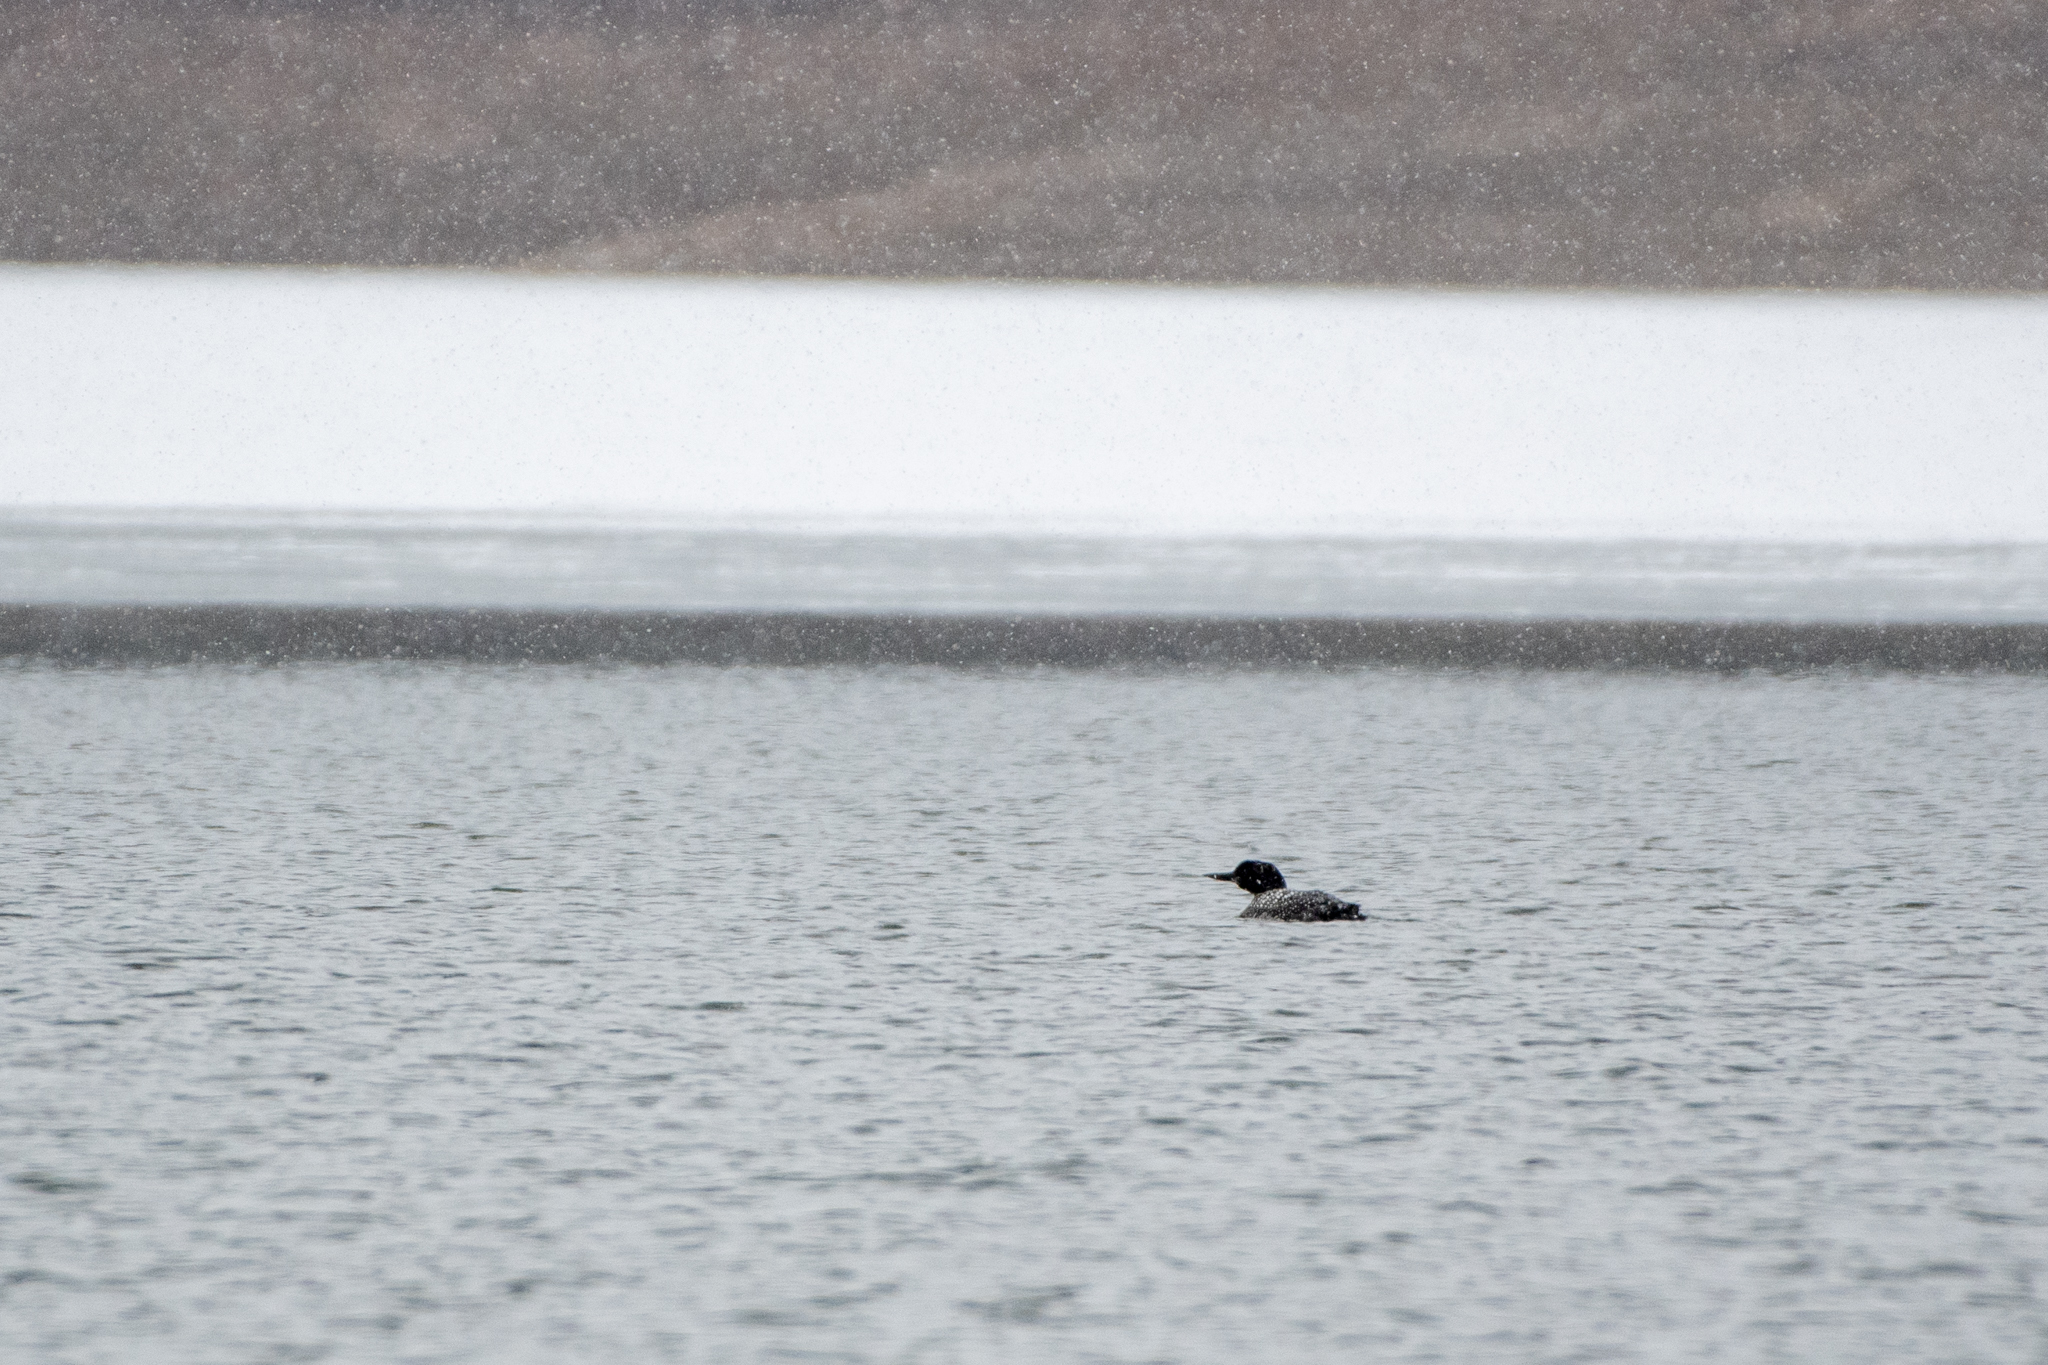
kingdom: Animalia
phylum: Chordata
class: Aves
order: Gaviiformes
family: Gaviidae
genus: Gavia
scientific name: Gavia immer
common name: Common loon
